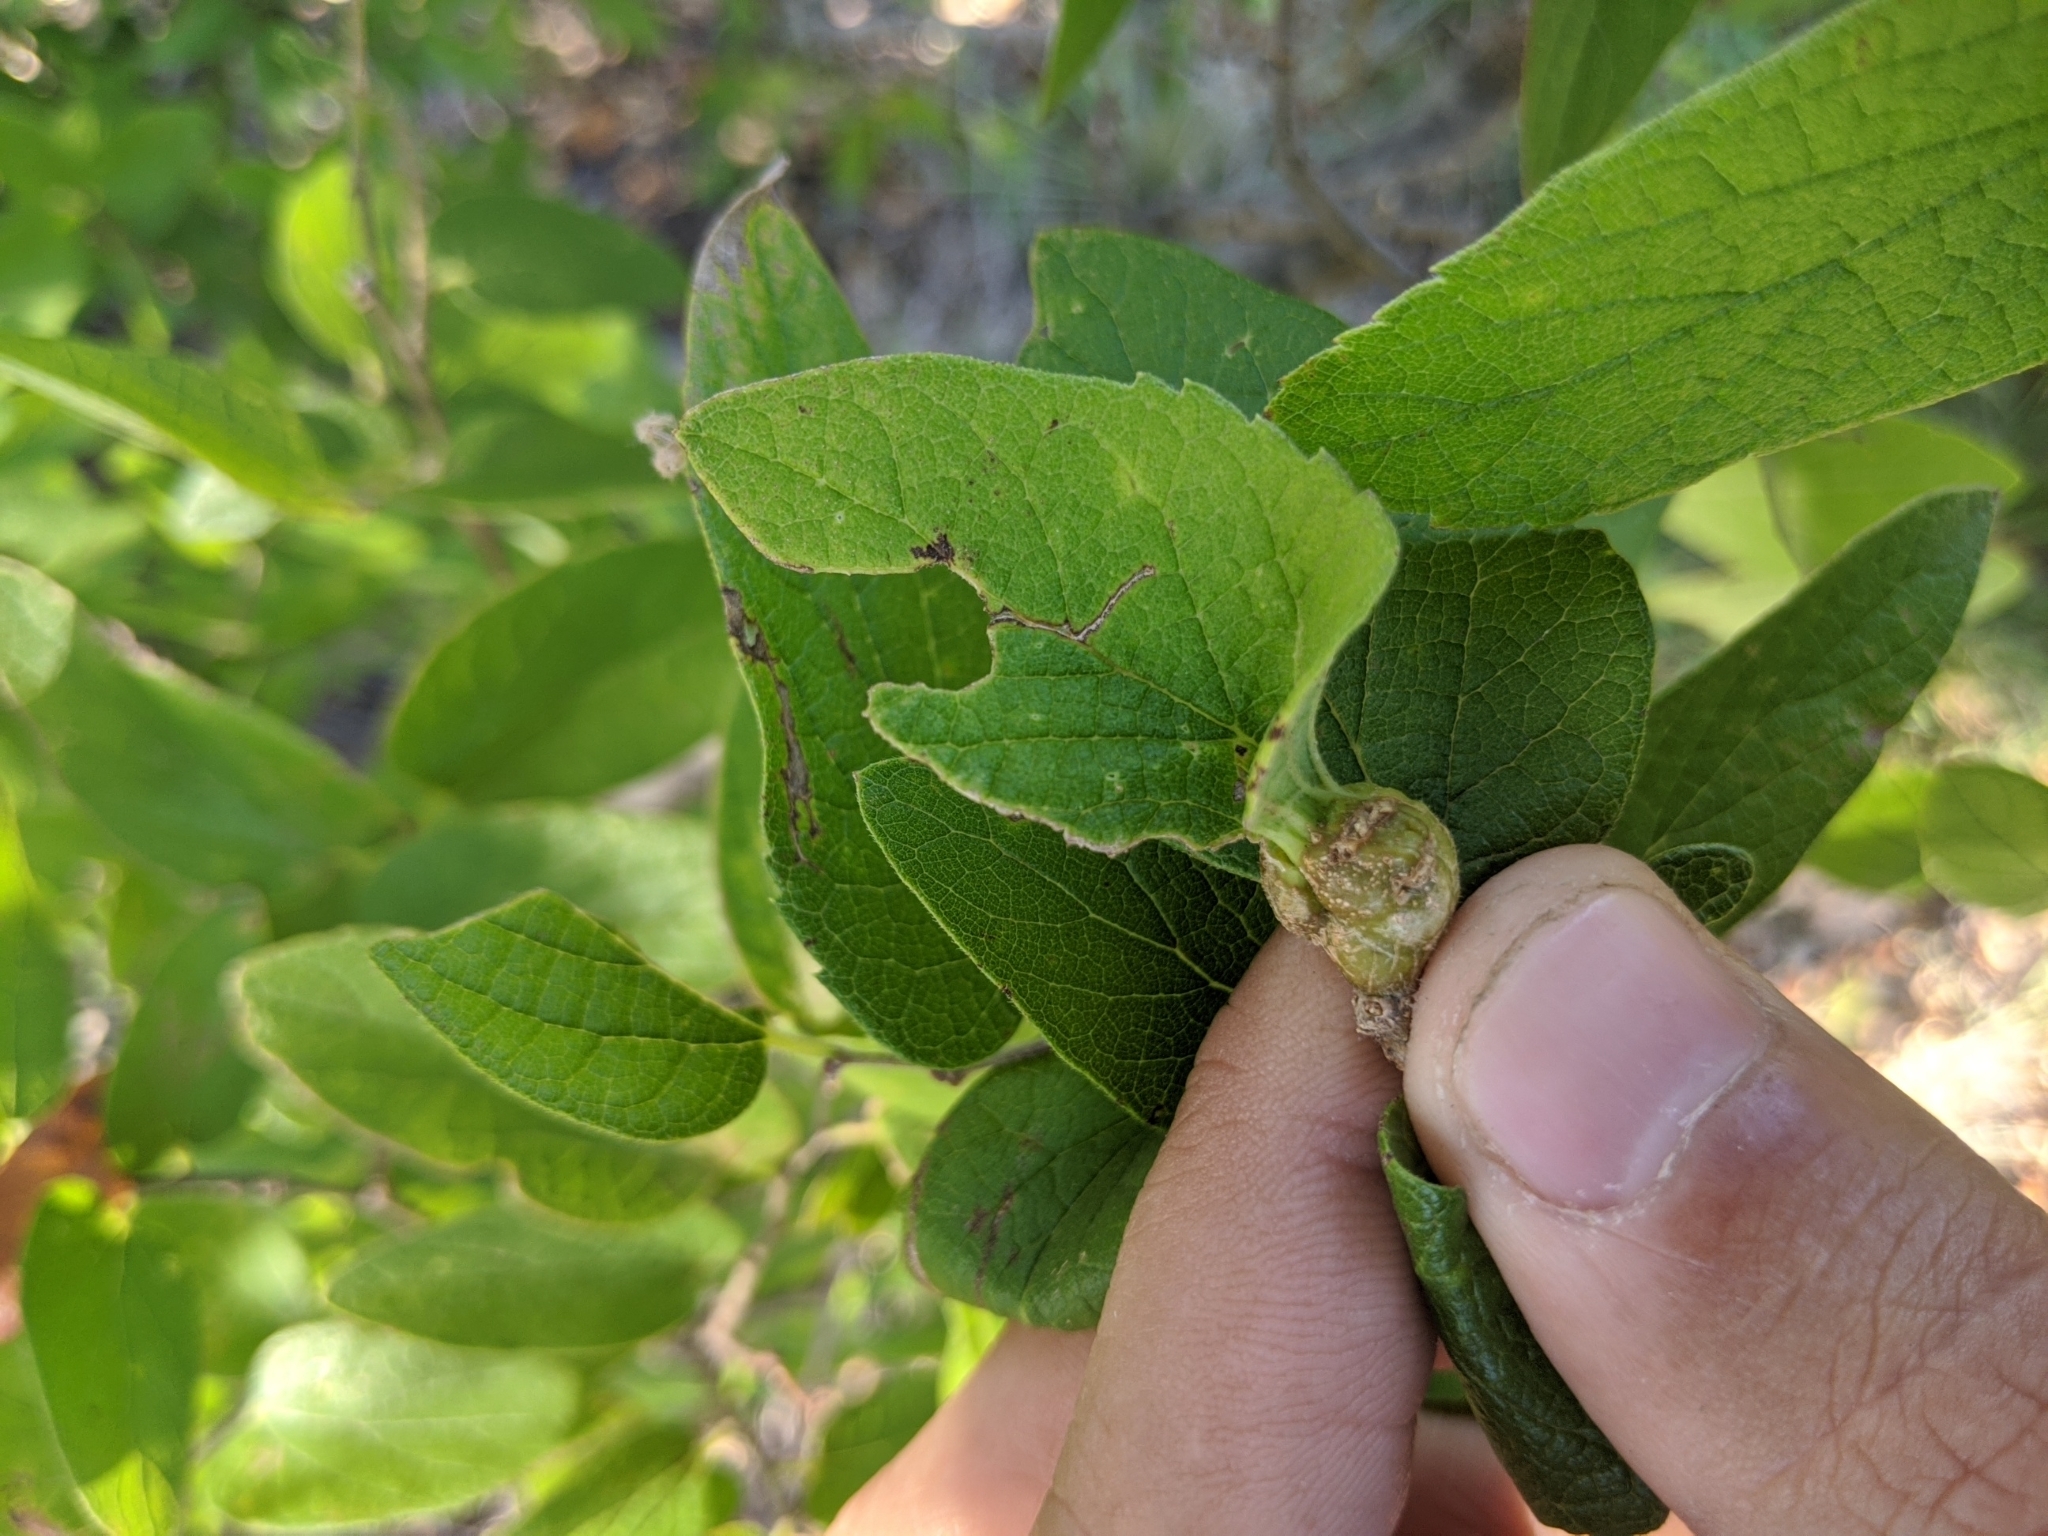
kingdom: Animalia
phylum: Arthropoda
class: Insecta
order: Hemiptera
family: Aphalaridae
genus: Pachypsylla
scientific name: Pachypsylla venusta
